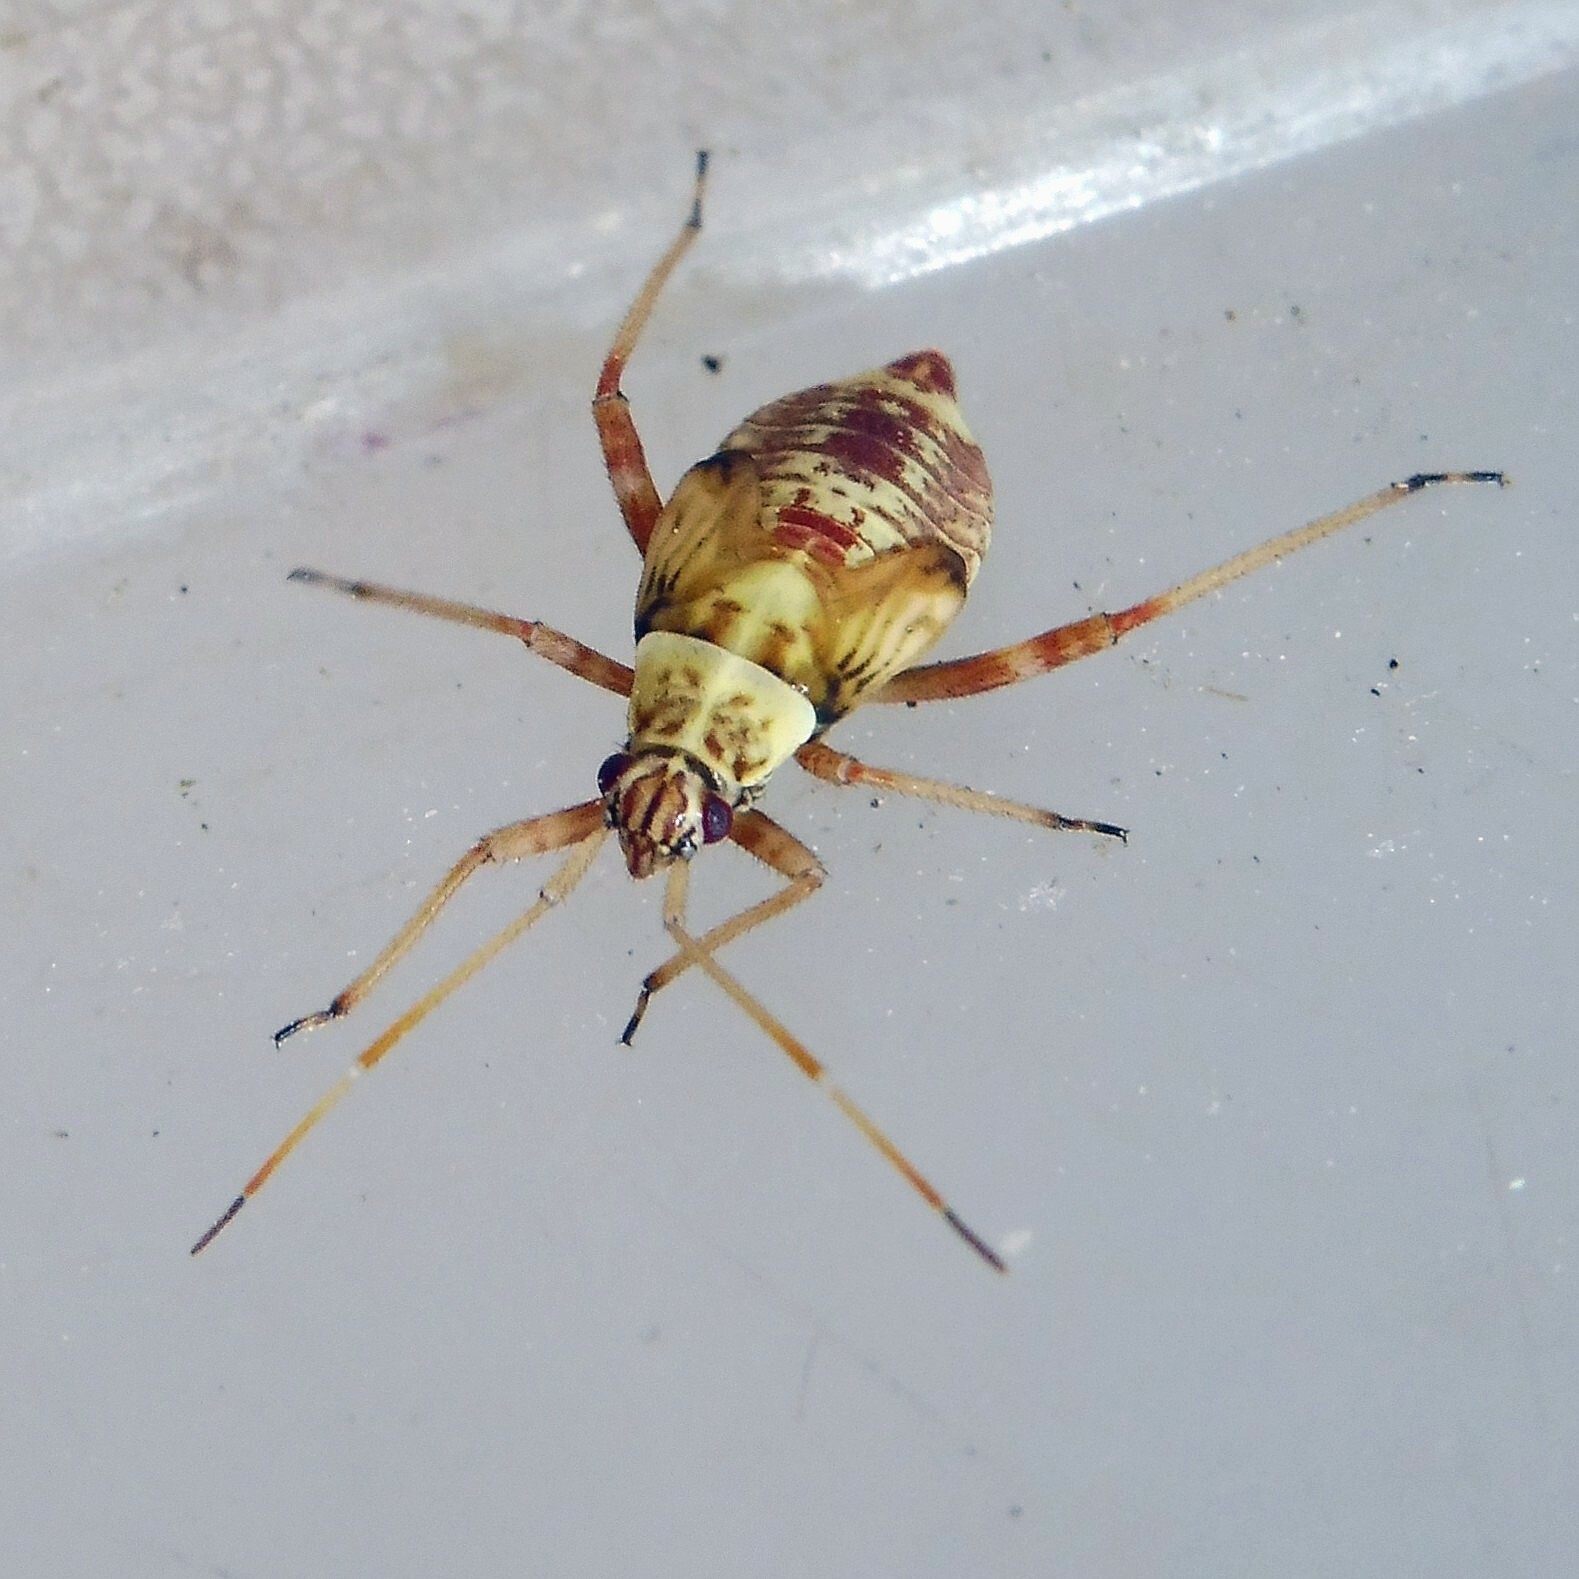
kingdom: Animalia
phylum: Arthropoda
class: Insecta
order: Hemiptera
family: Miridae
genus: Rhabdomiris
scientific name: Rhabdomiris striatellus
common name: Plant bug
